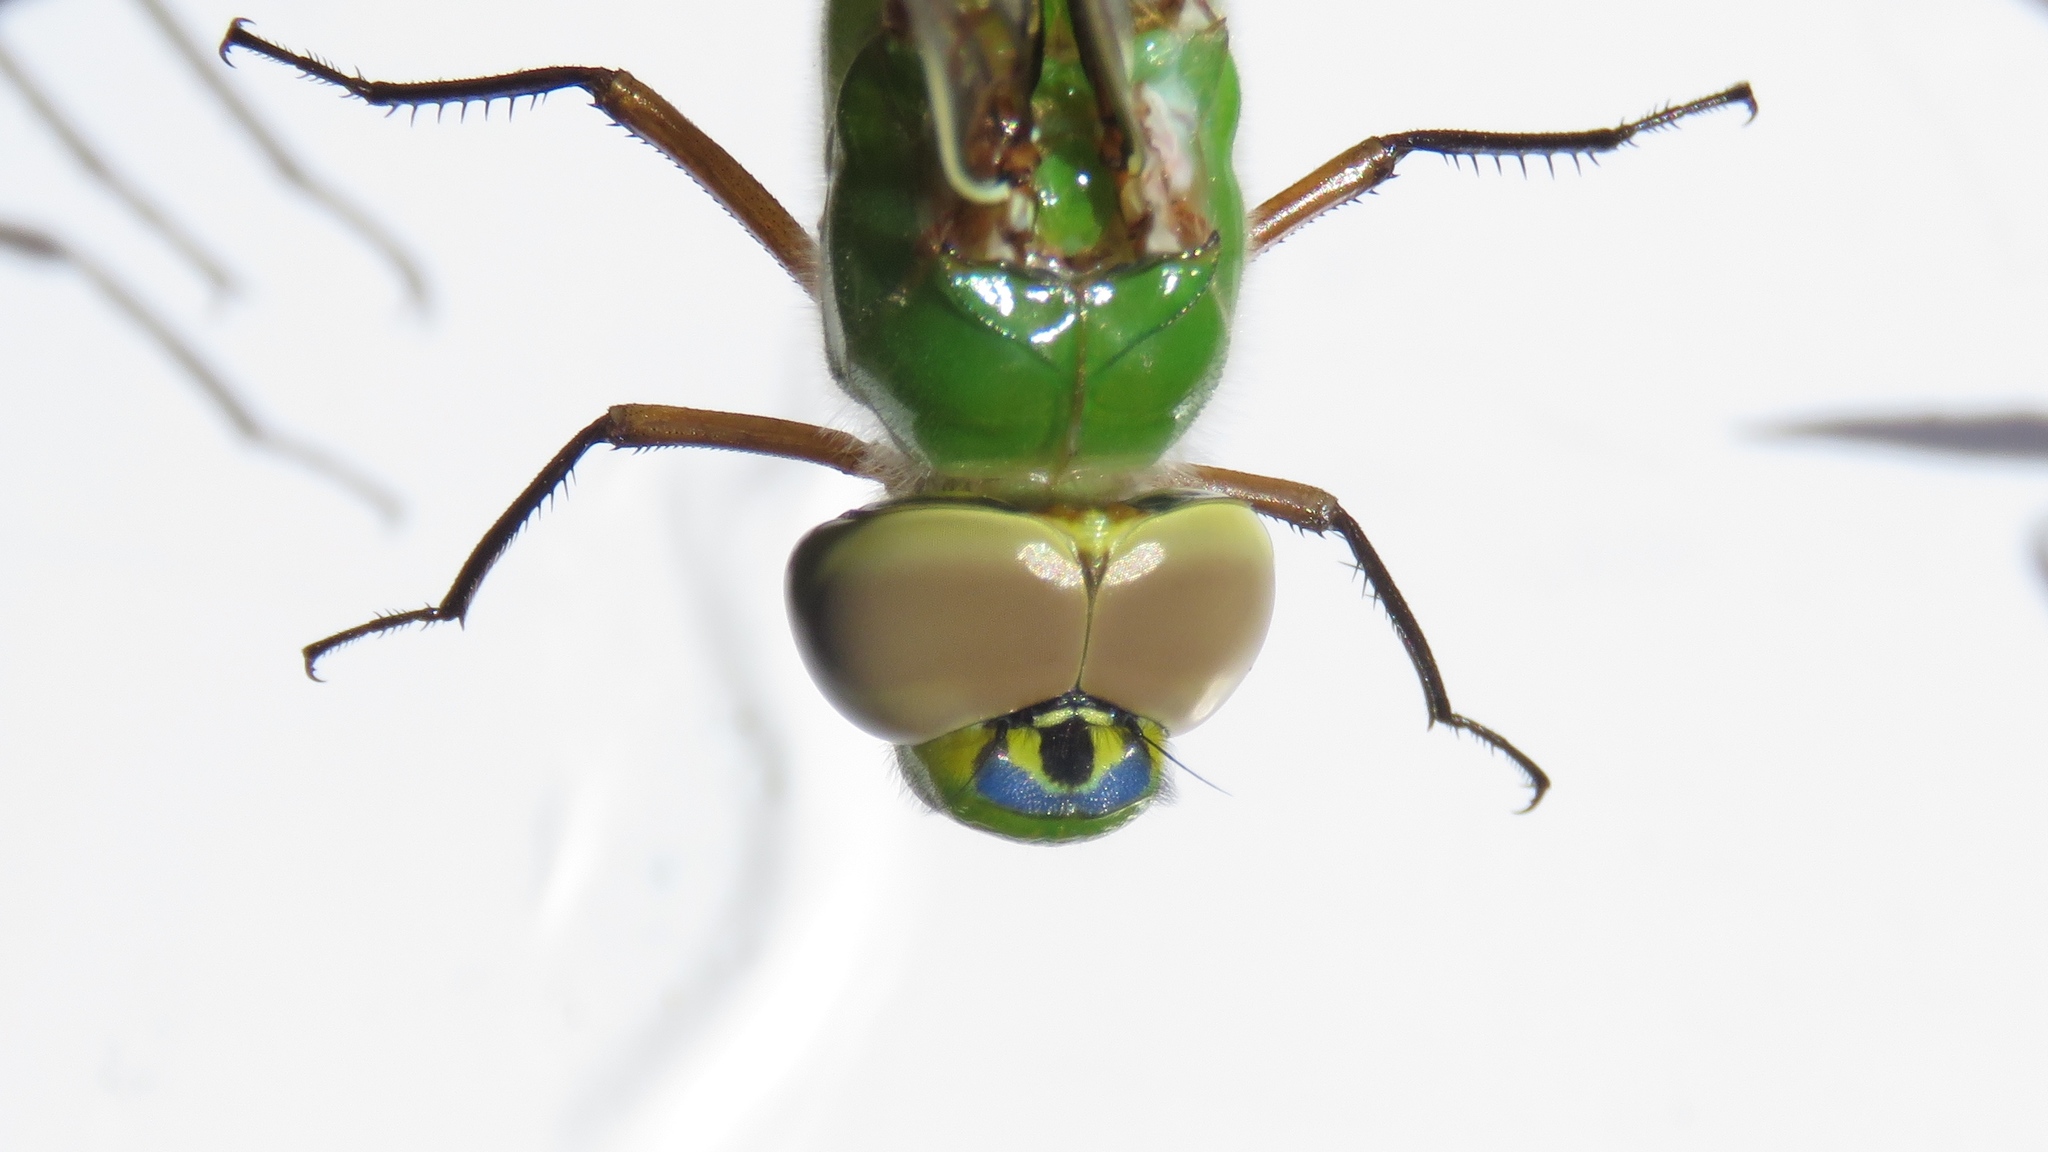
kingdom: Animalia
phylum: Arthropoda
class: Insecta
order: Odonata
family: Aeshnidae
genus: Anax
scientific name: Anax junius
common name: Common green darner
